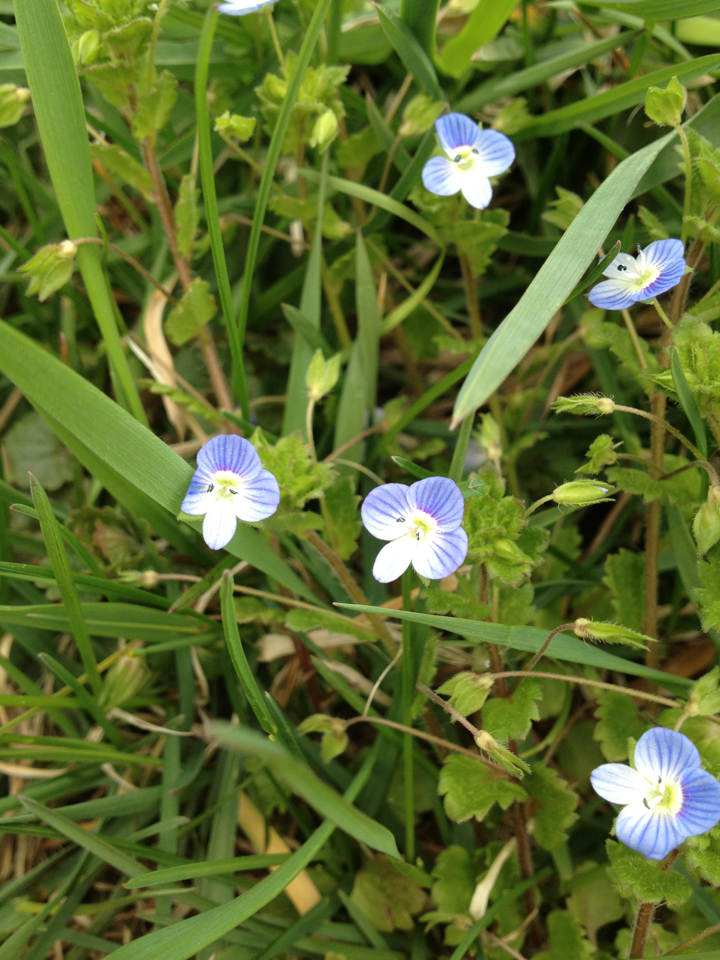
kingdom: Plantae
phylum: Tracheophyta
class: Magnoliopsida
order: Lamiales
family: Plantaginaceae
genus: Veronica
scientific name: Veronica persica
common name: Common field-speedwell
